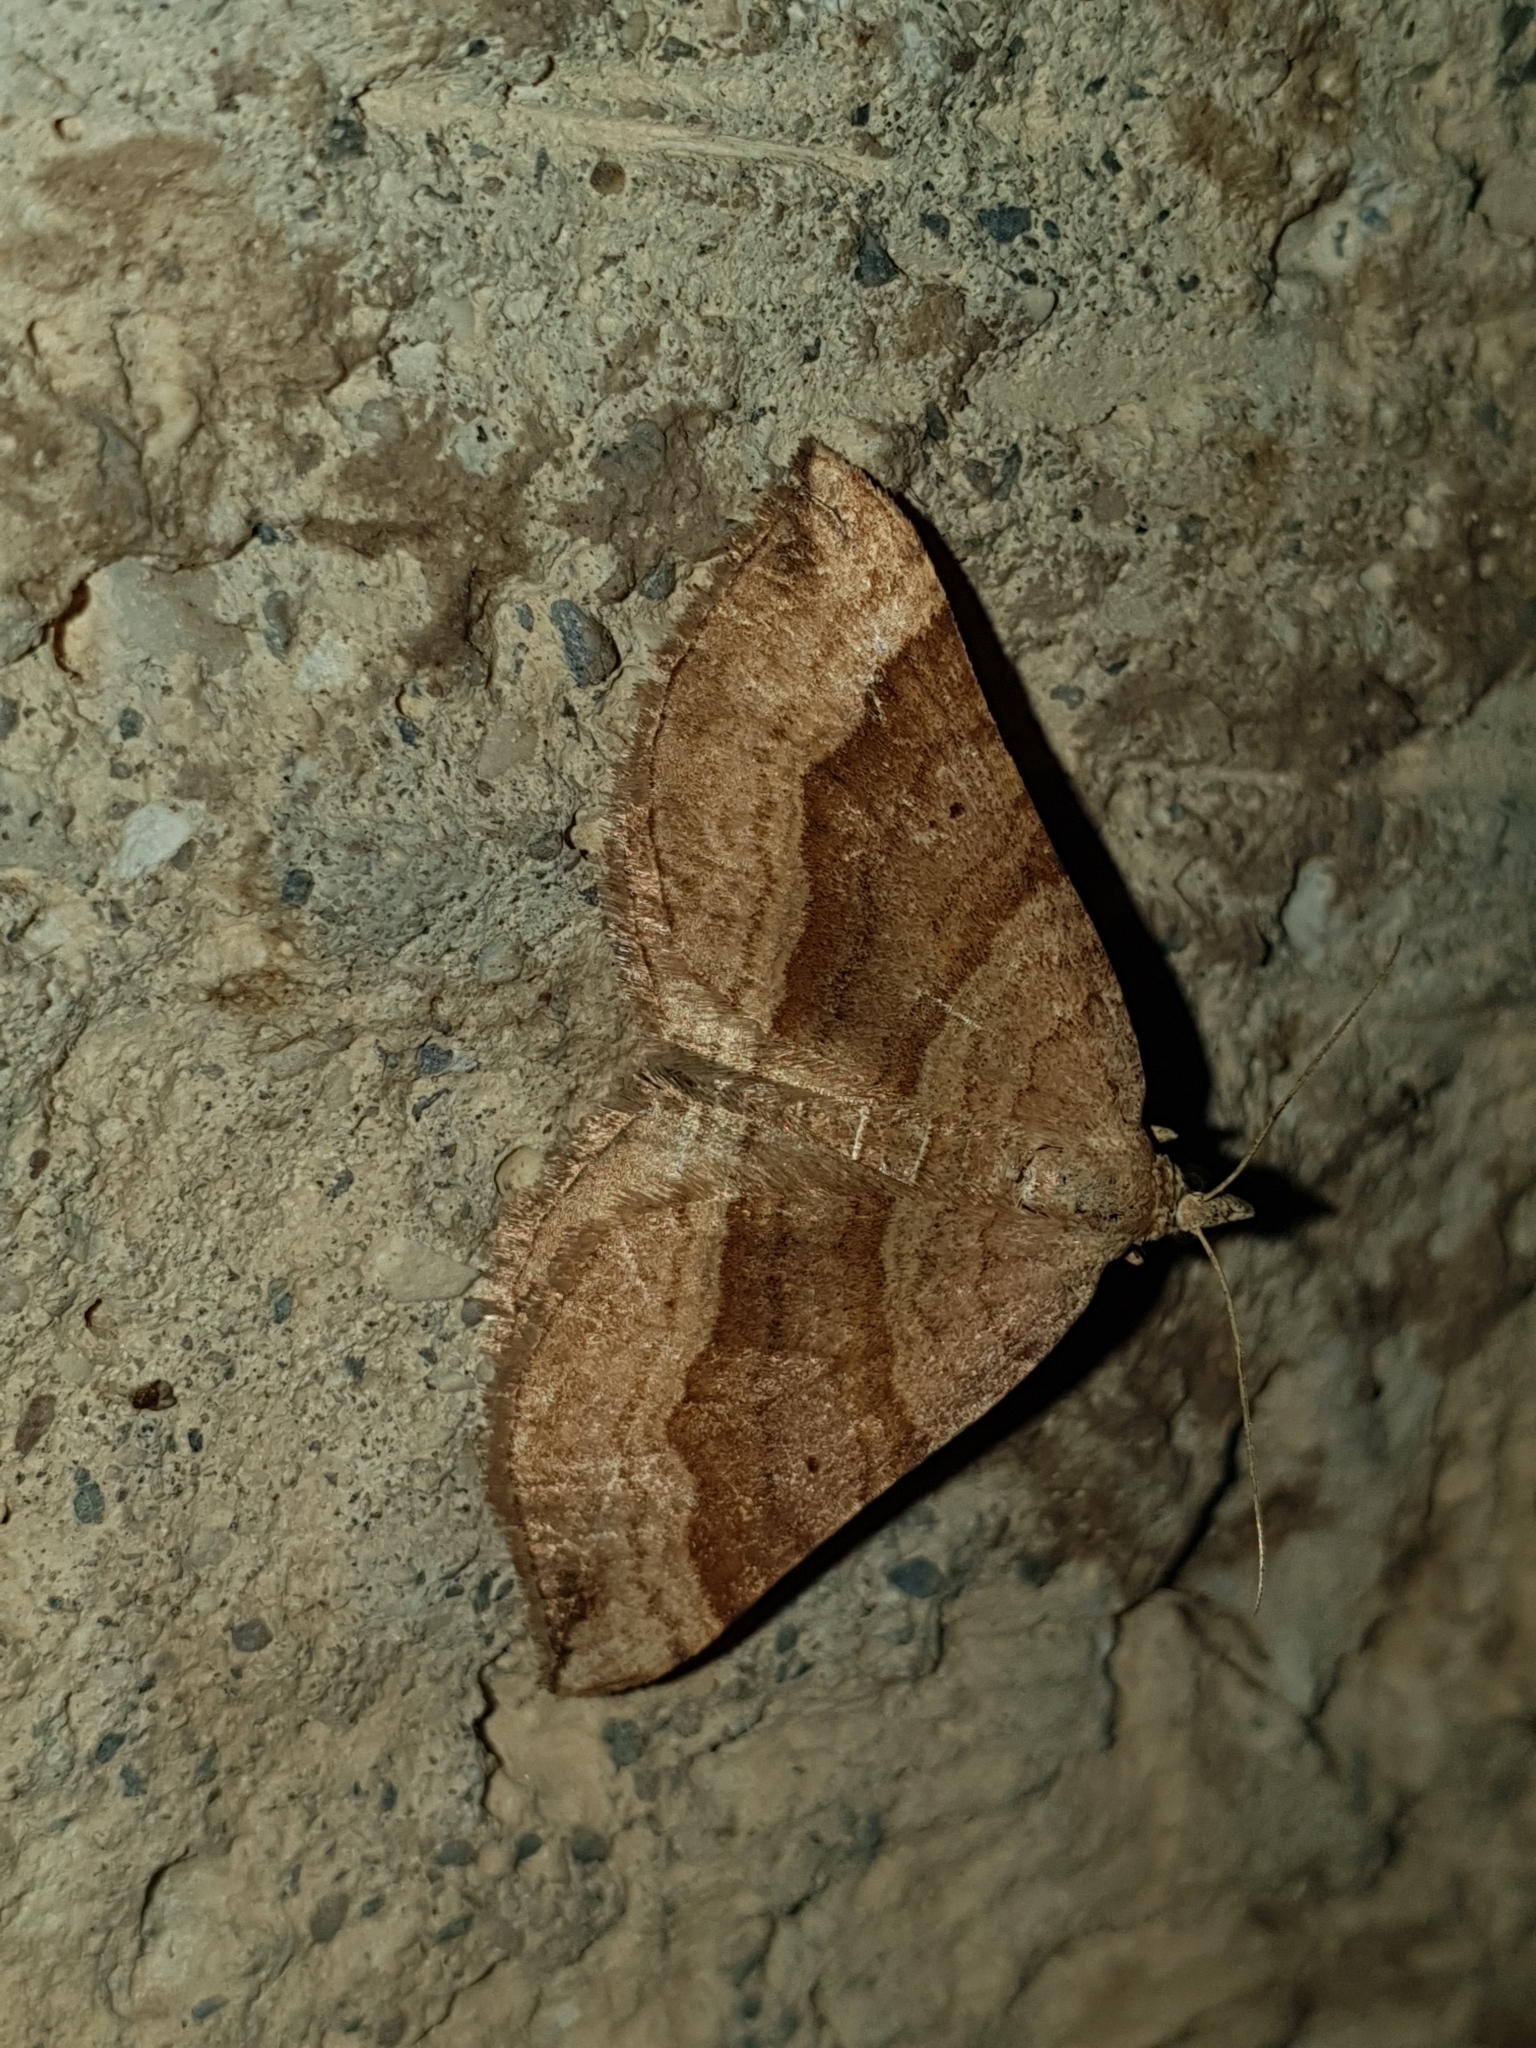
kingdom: Animalia
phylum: Arthropoda
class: Insecta
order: Lepidoptera
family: Geometridae
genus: Scotopteryx
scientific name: Scotopteryx chenopodiata
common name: Shaded broad-bar
